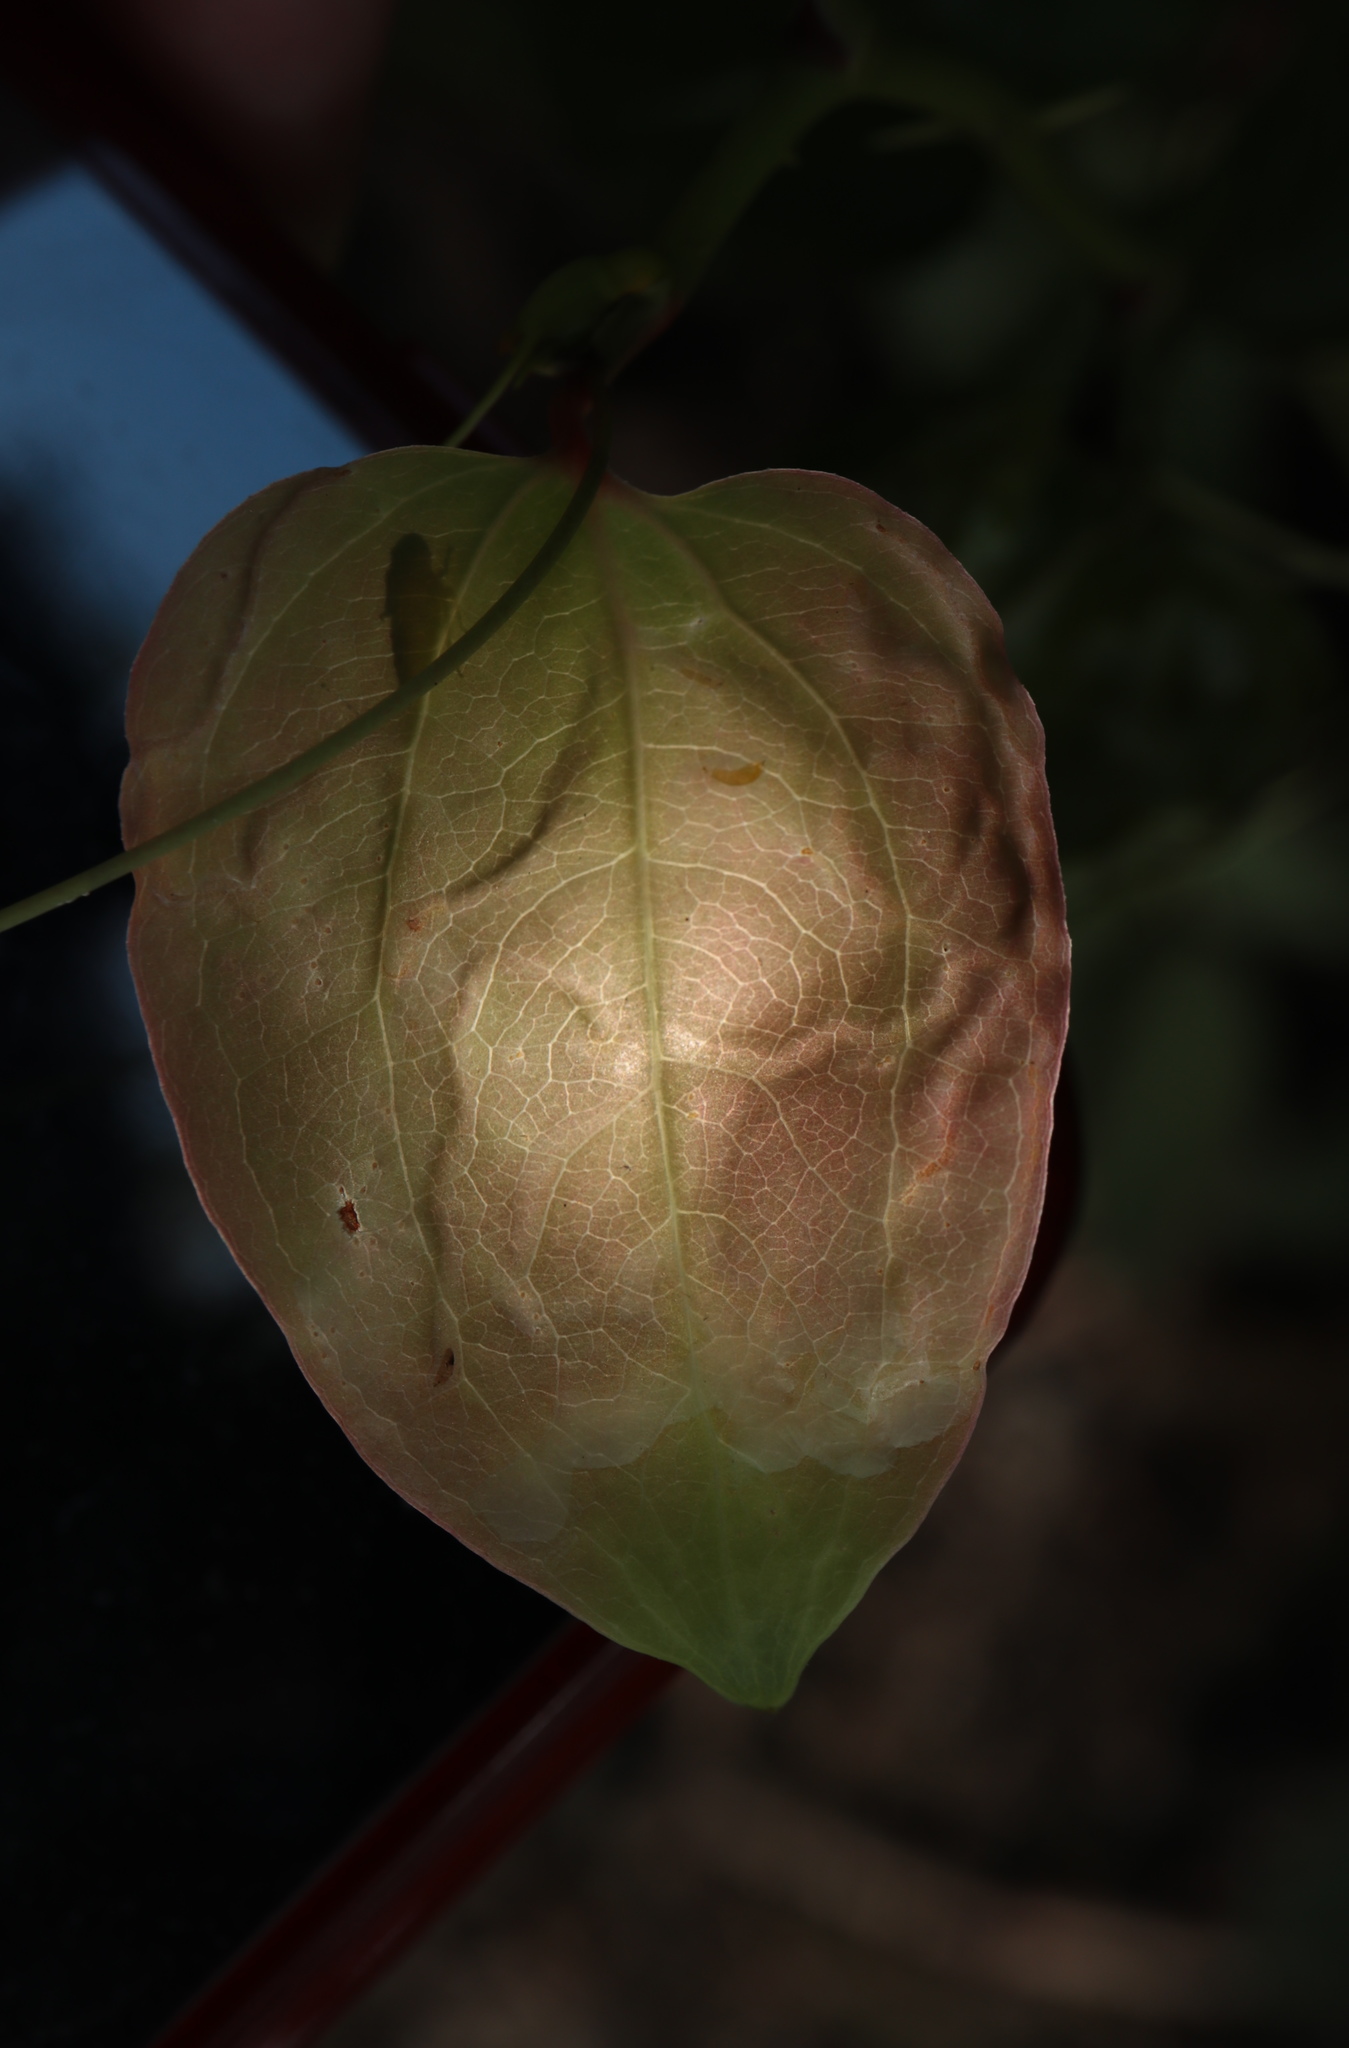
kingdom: Animalia
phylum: Arthropoda
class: Insecta
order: Diptera
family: Agromyzidae
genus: Liriomyza
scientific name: Liriomyza schmidti
